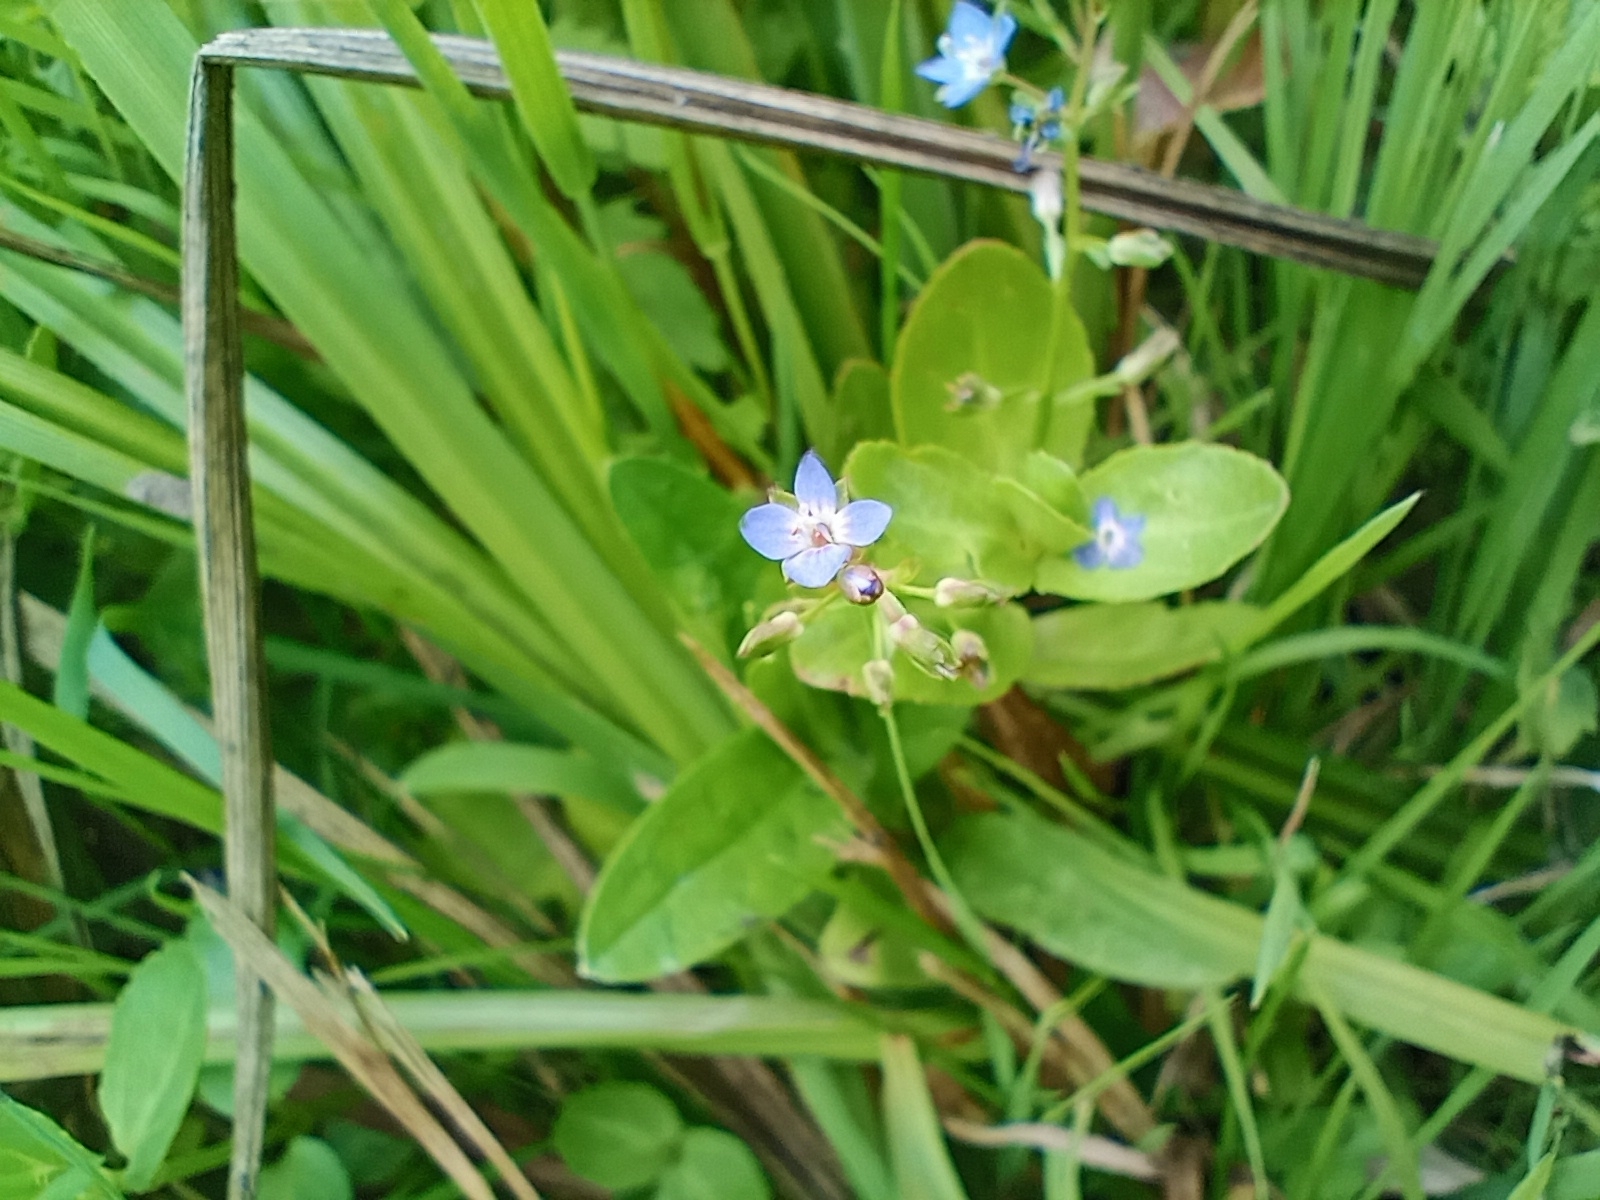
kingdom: Plantae
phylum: Tracheophyta
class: Magnoliopsida
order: Lamiales
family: Plantaginaceae
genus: Veronica
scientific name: Veronica beccabunga
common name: Brooklime
